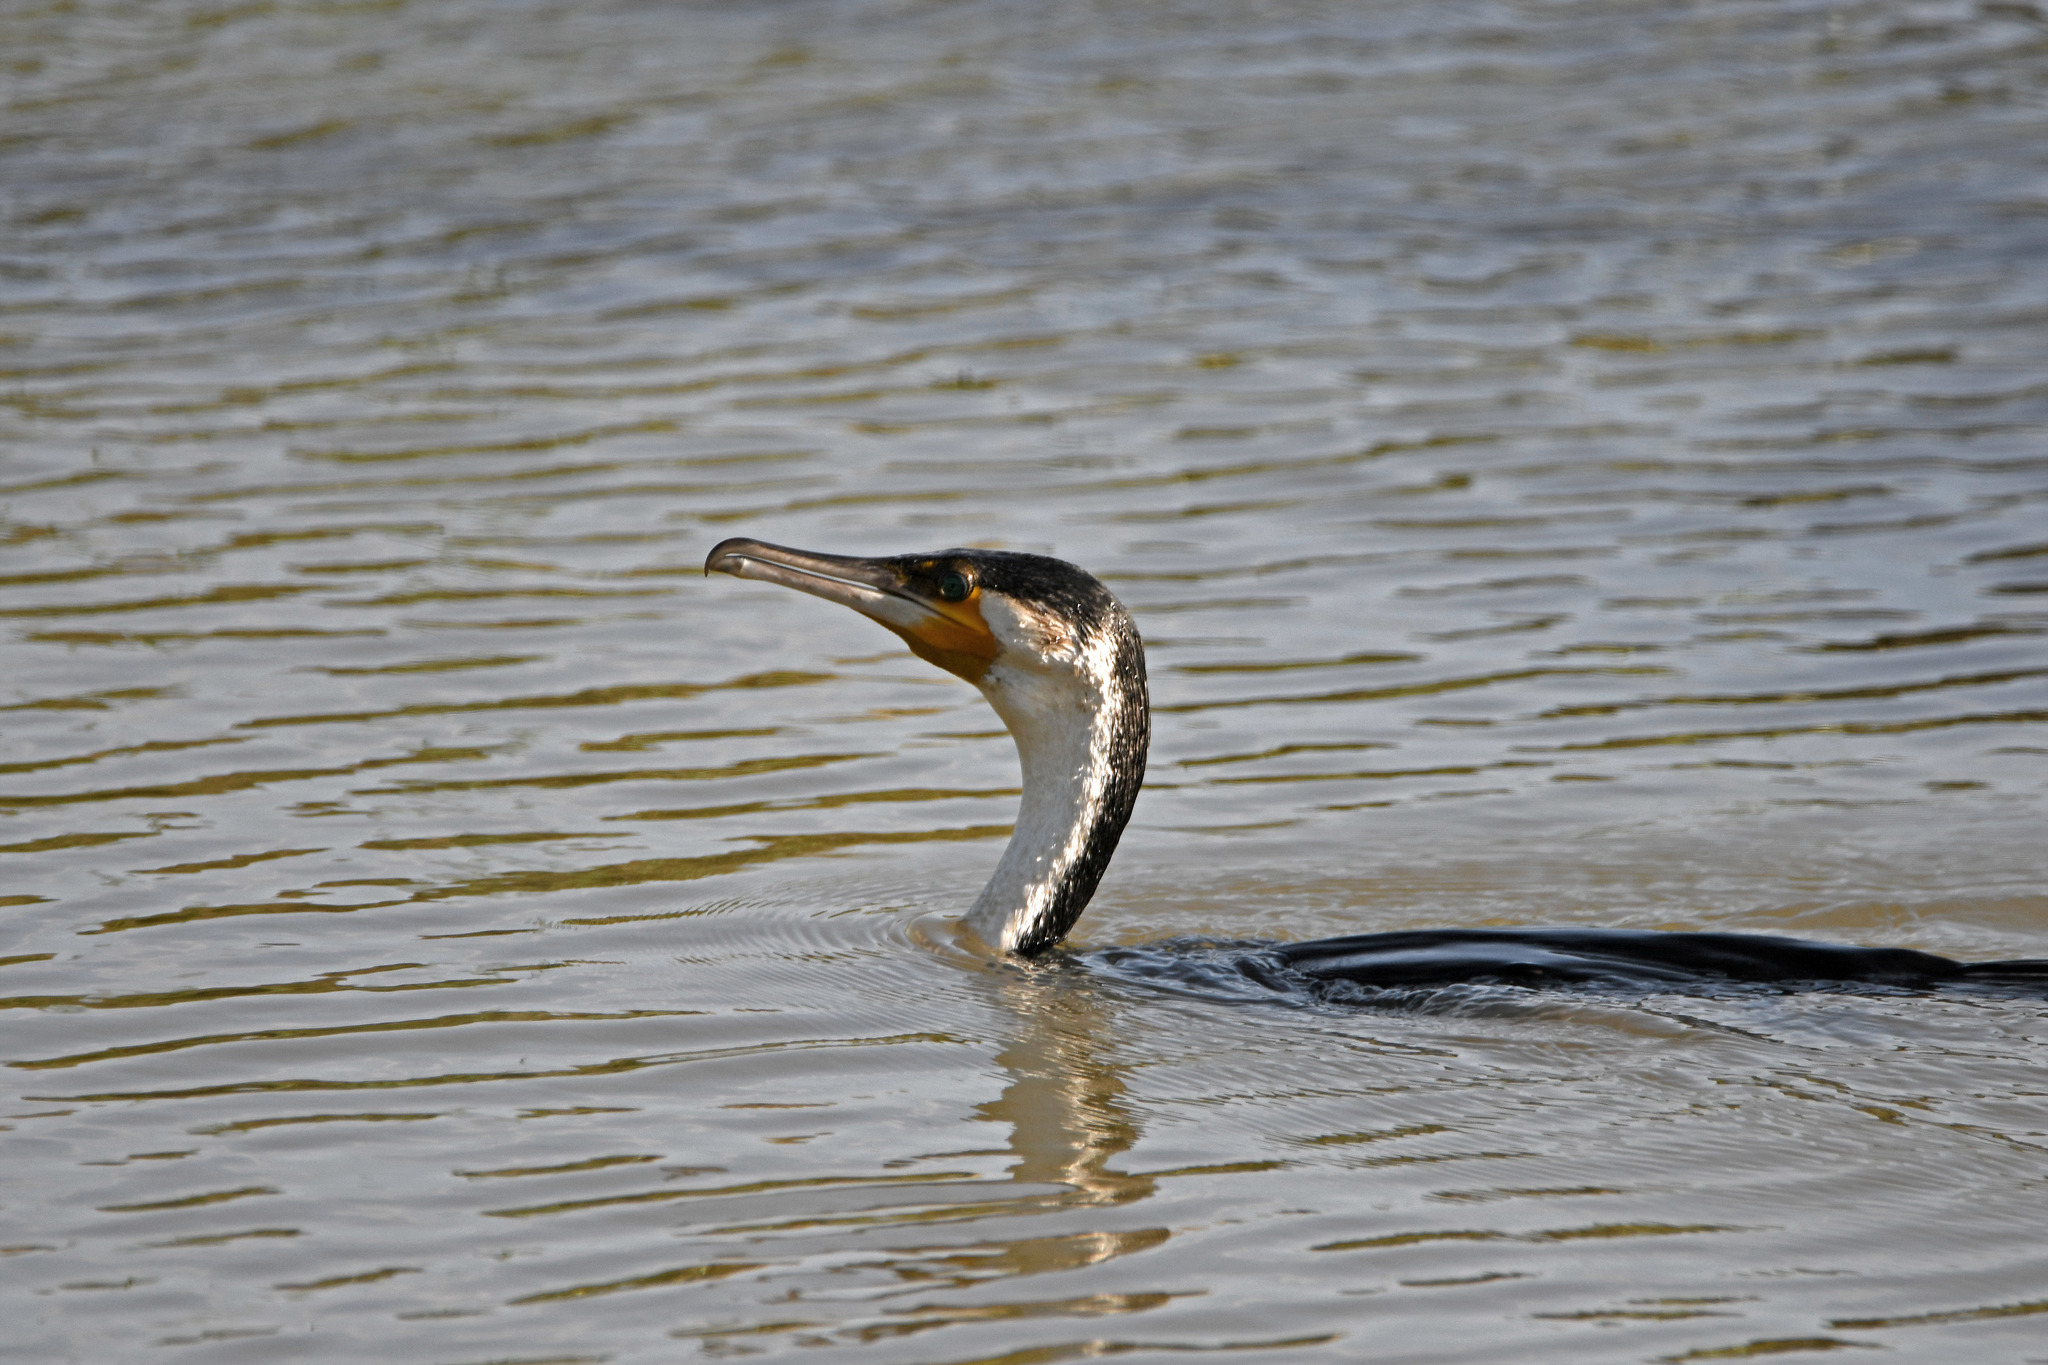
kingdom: Animalia
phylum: Chordata
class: Aves
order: Suliformes
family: Phalacrocoracidae
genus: Phalacrocorax
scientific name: Phalacrocorax carbo
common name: Great cormorant
